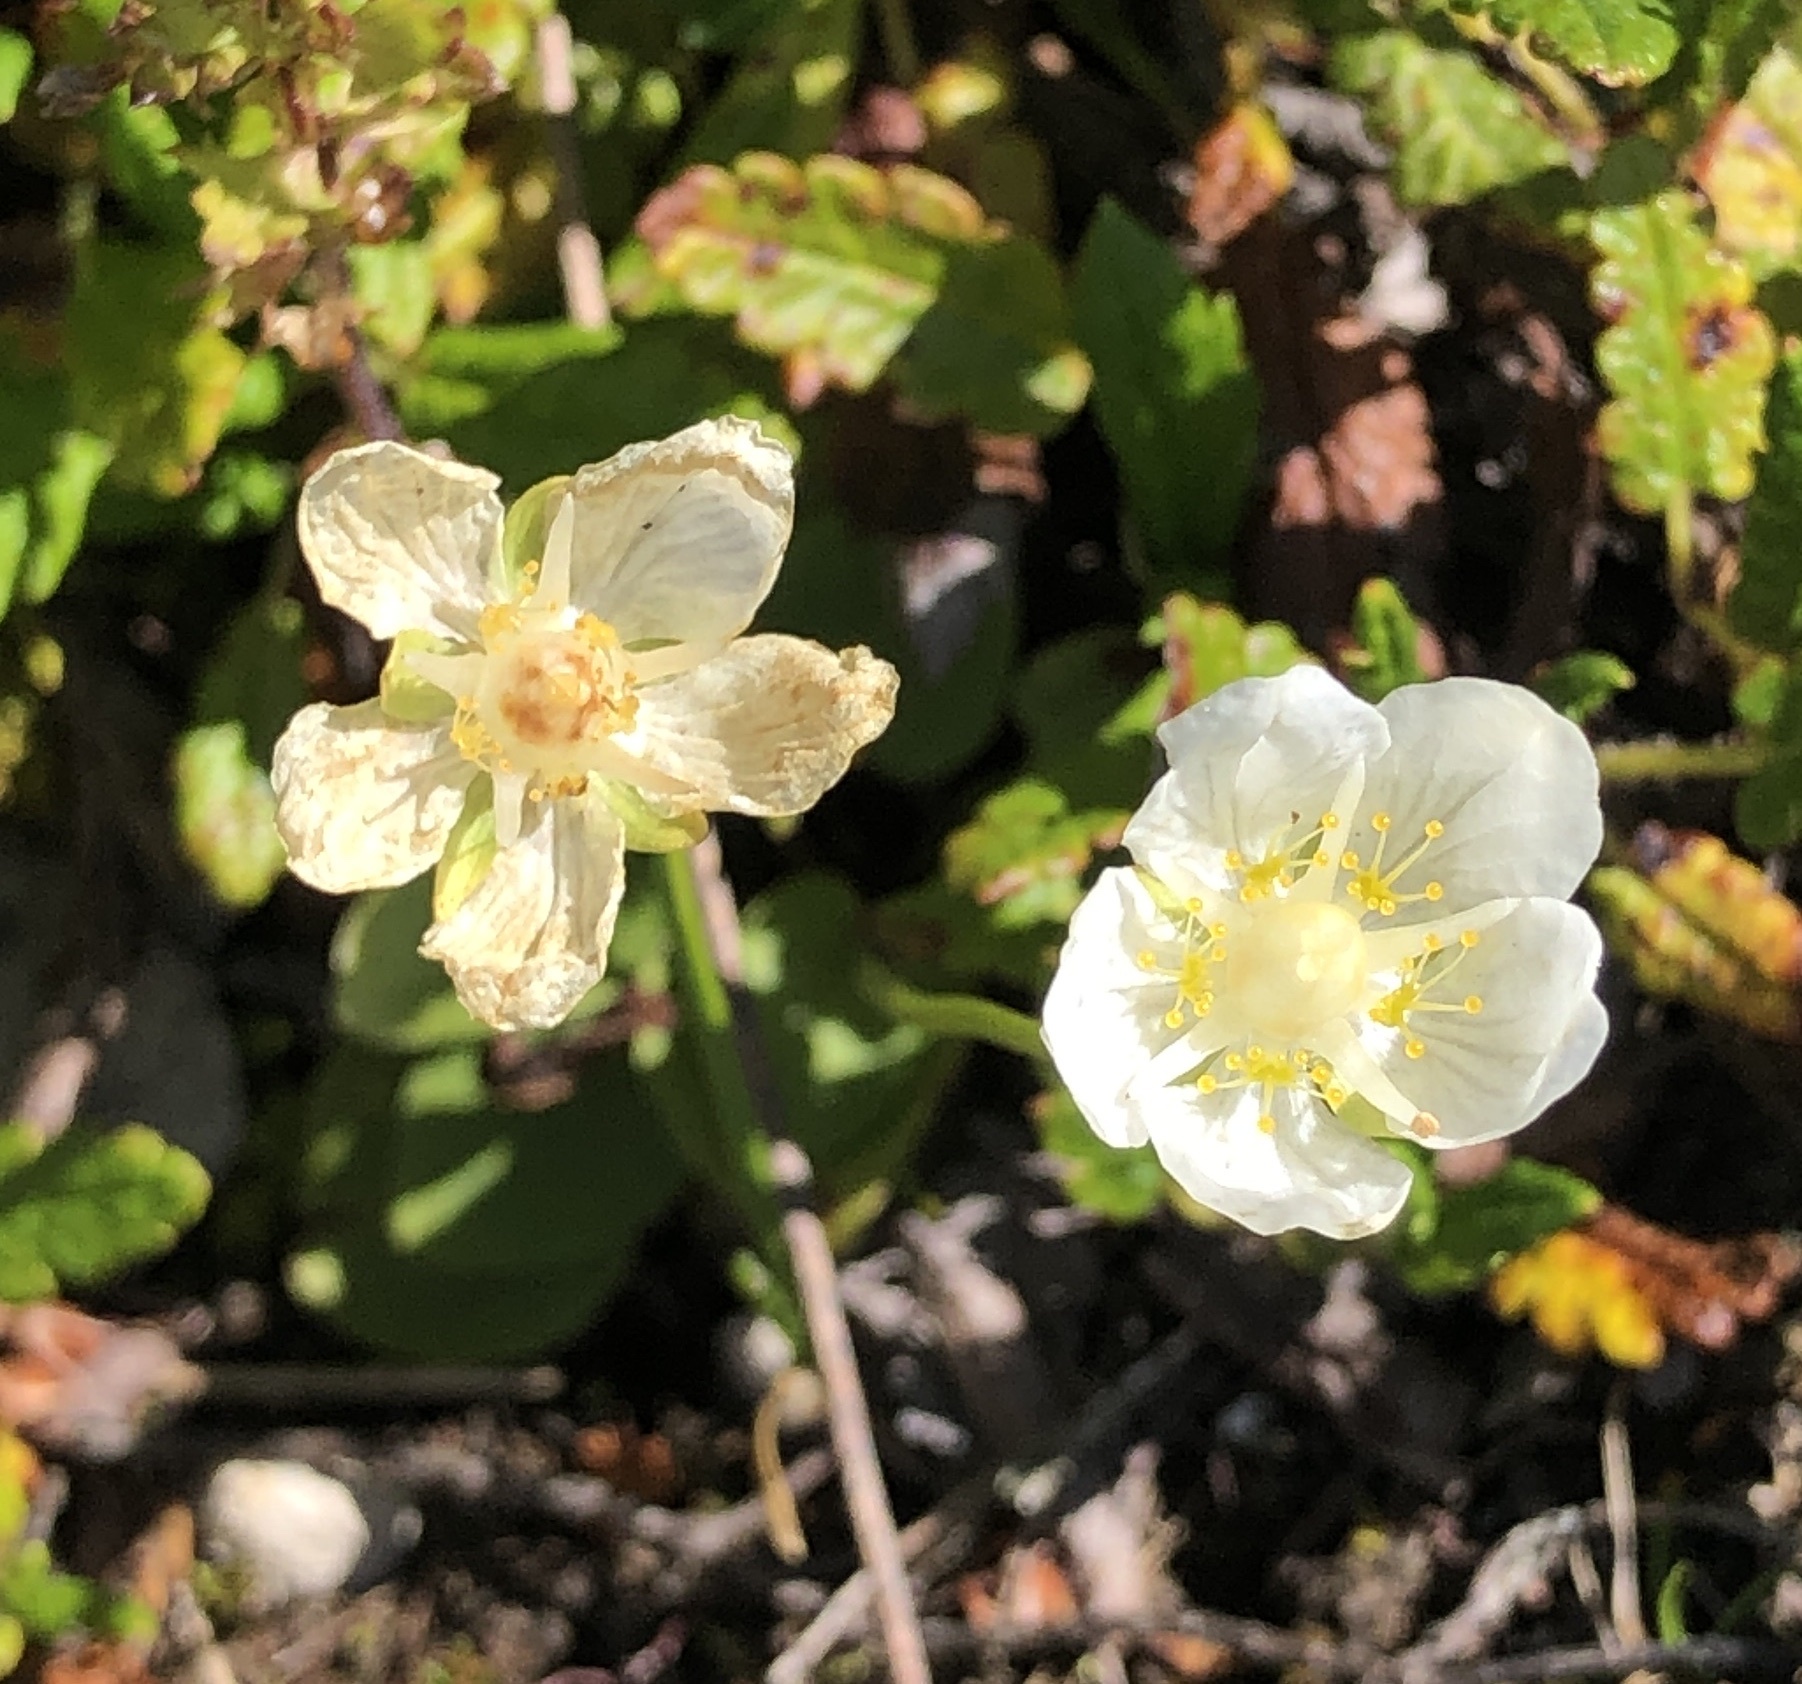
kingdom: Plantae
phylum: Tracheophyta
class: Magnoliopsida
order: Celastrales
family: Parnassiaceae
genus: Parnassia
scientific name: Parnassia palustris
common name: Grass-of-parnassus
